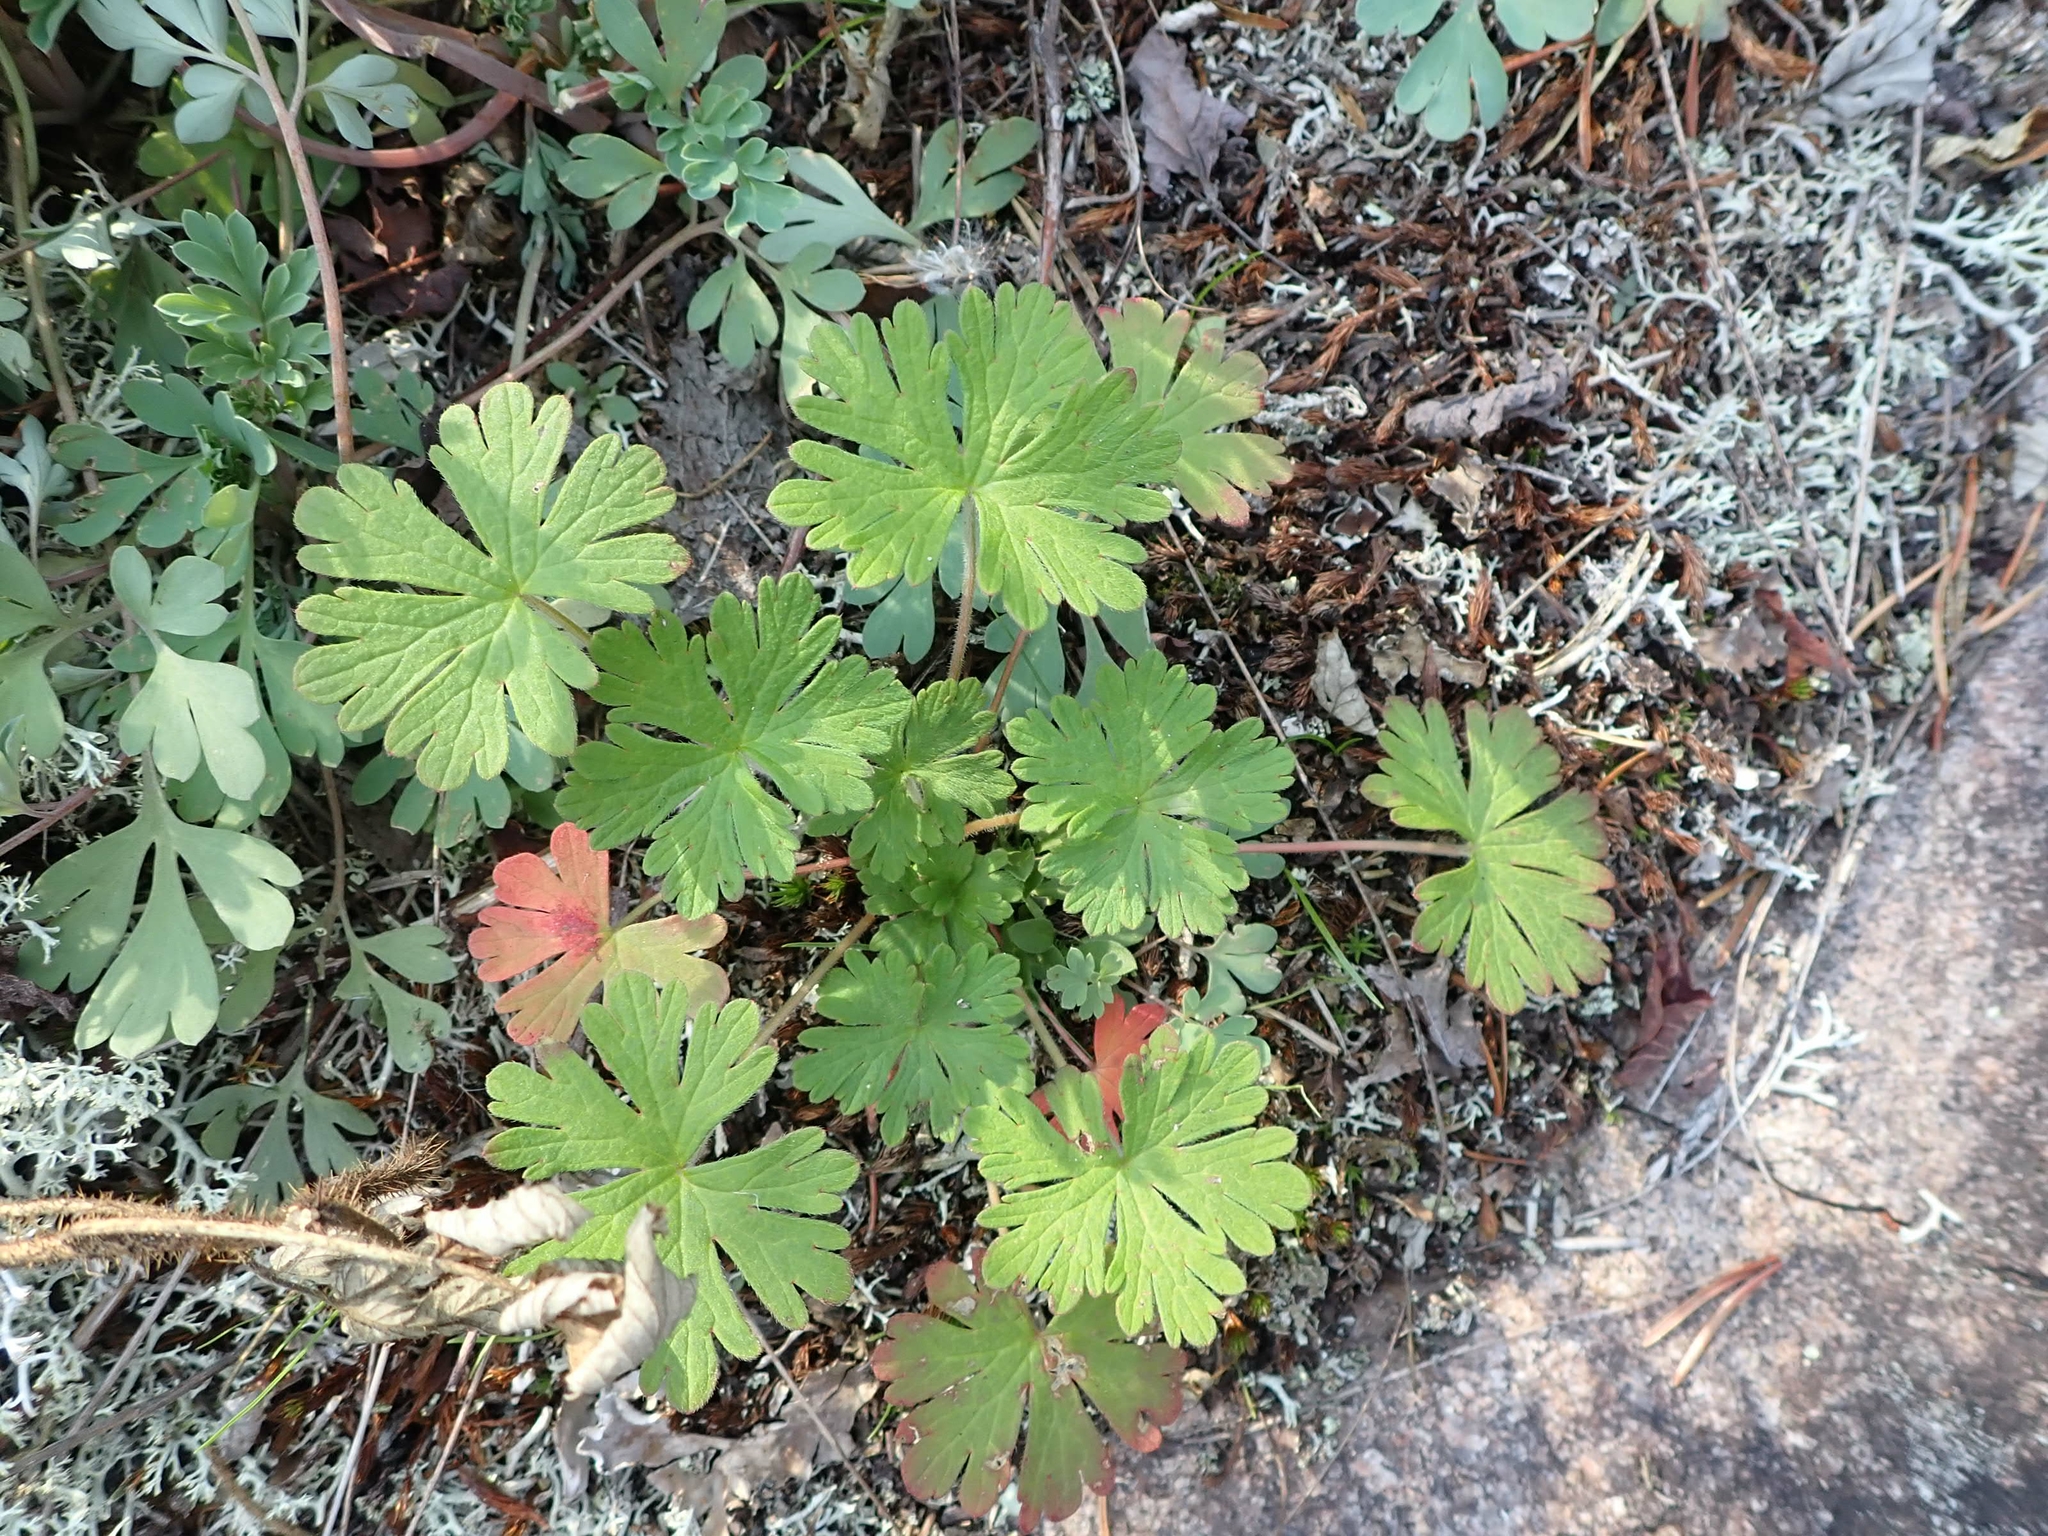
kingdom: Plantae
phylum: Tracheophyta
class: Magnoliopsida
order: Geraniales
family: Geraniaceae
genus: Geranium
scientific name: Geranium bicknellii
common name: Bicknell's cranesbill
